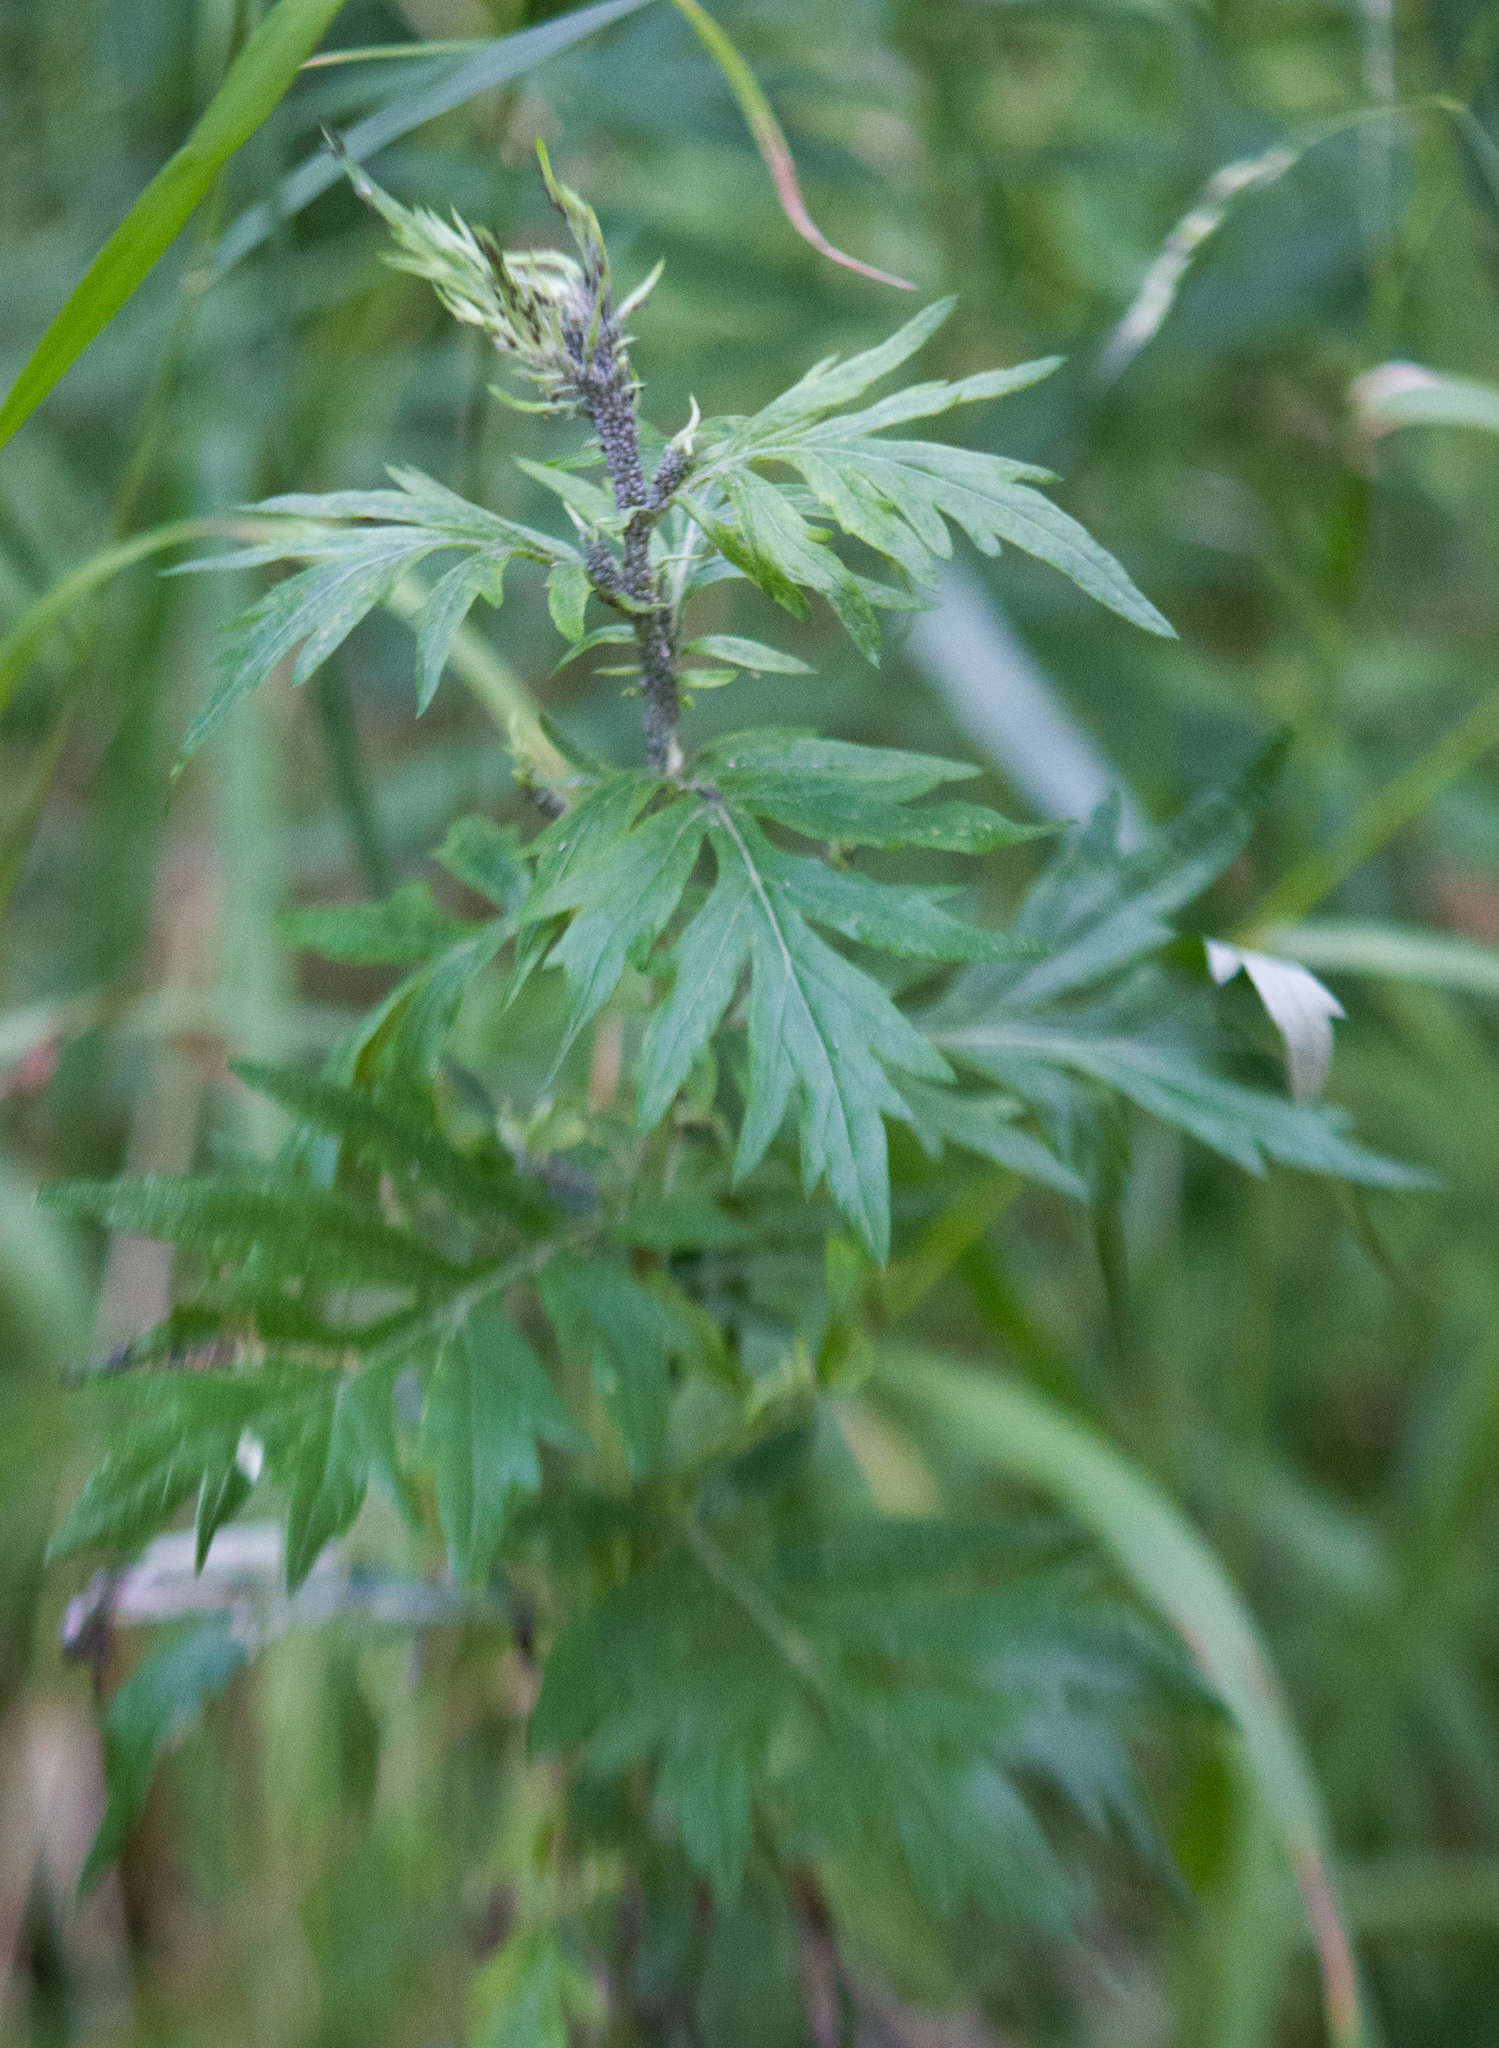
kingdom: Plantae
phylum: Tracheophyta
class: Magnoliopsida
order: Asterales
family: Asteraceae
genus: Artemisia
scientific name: Artemisia vulgaris
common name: Mugwort
